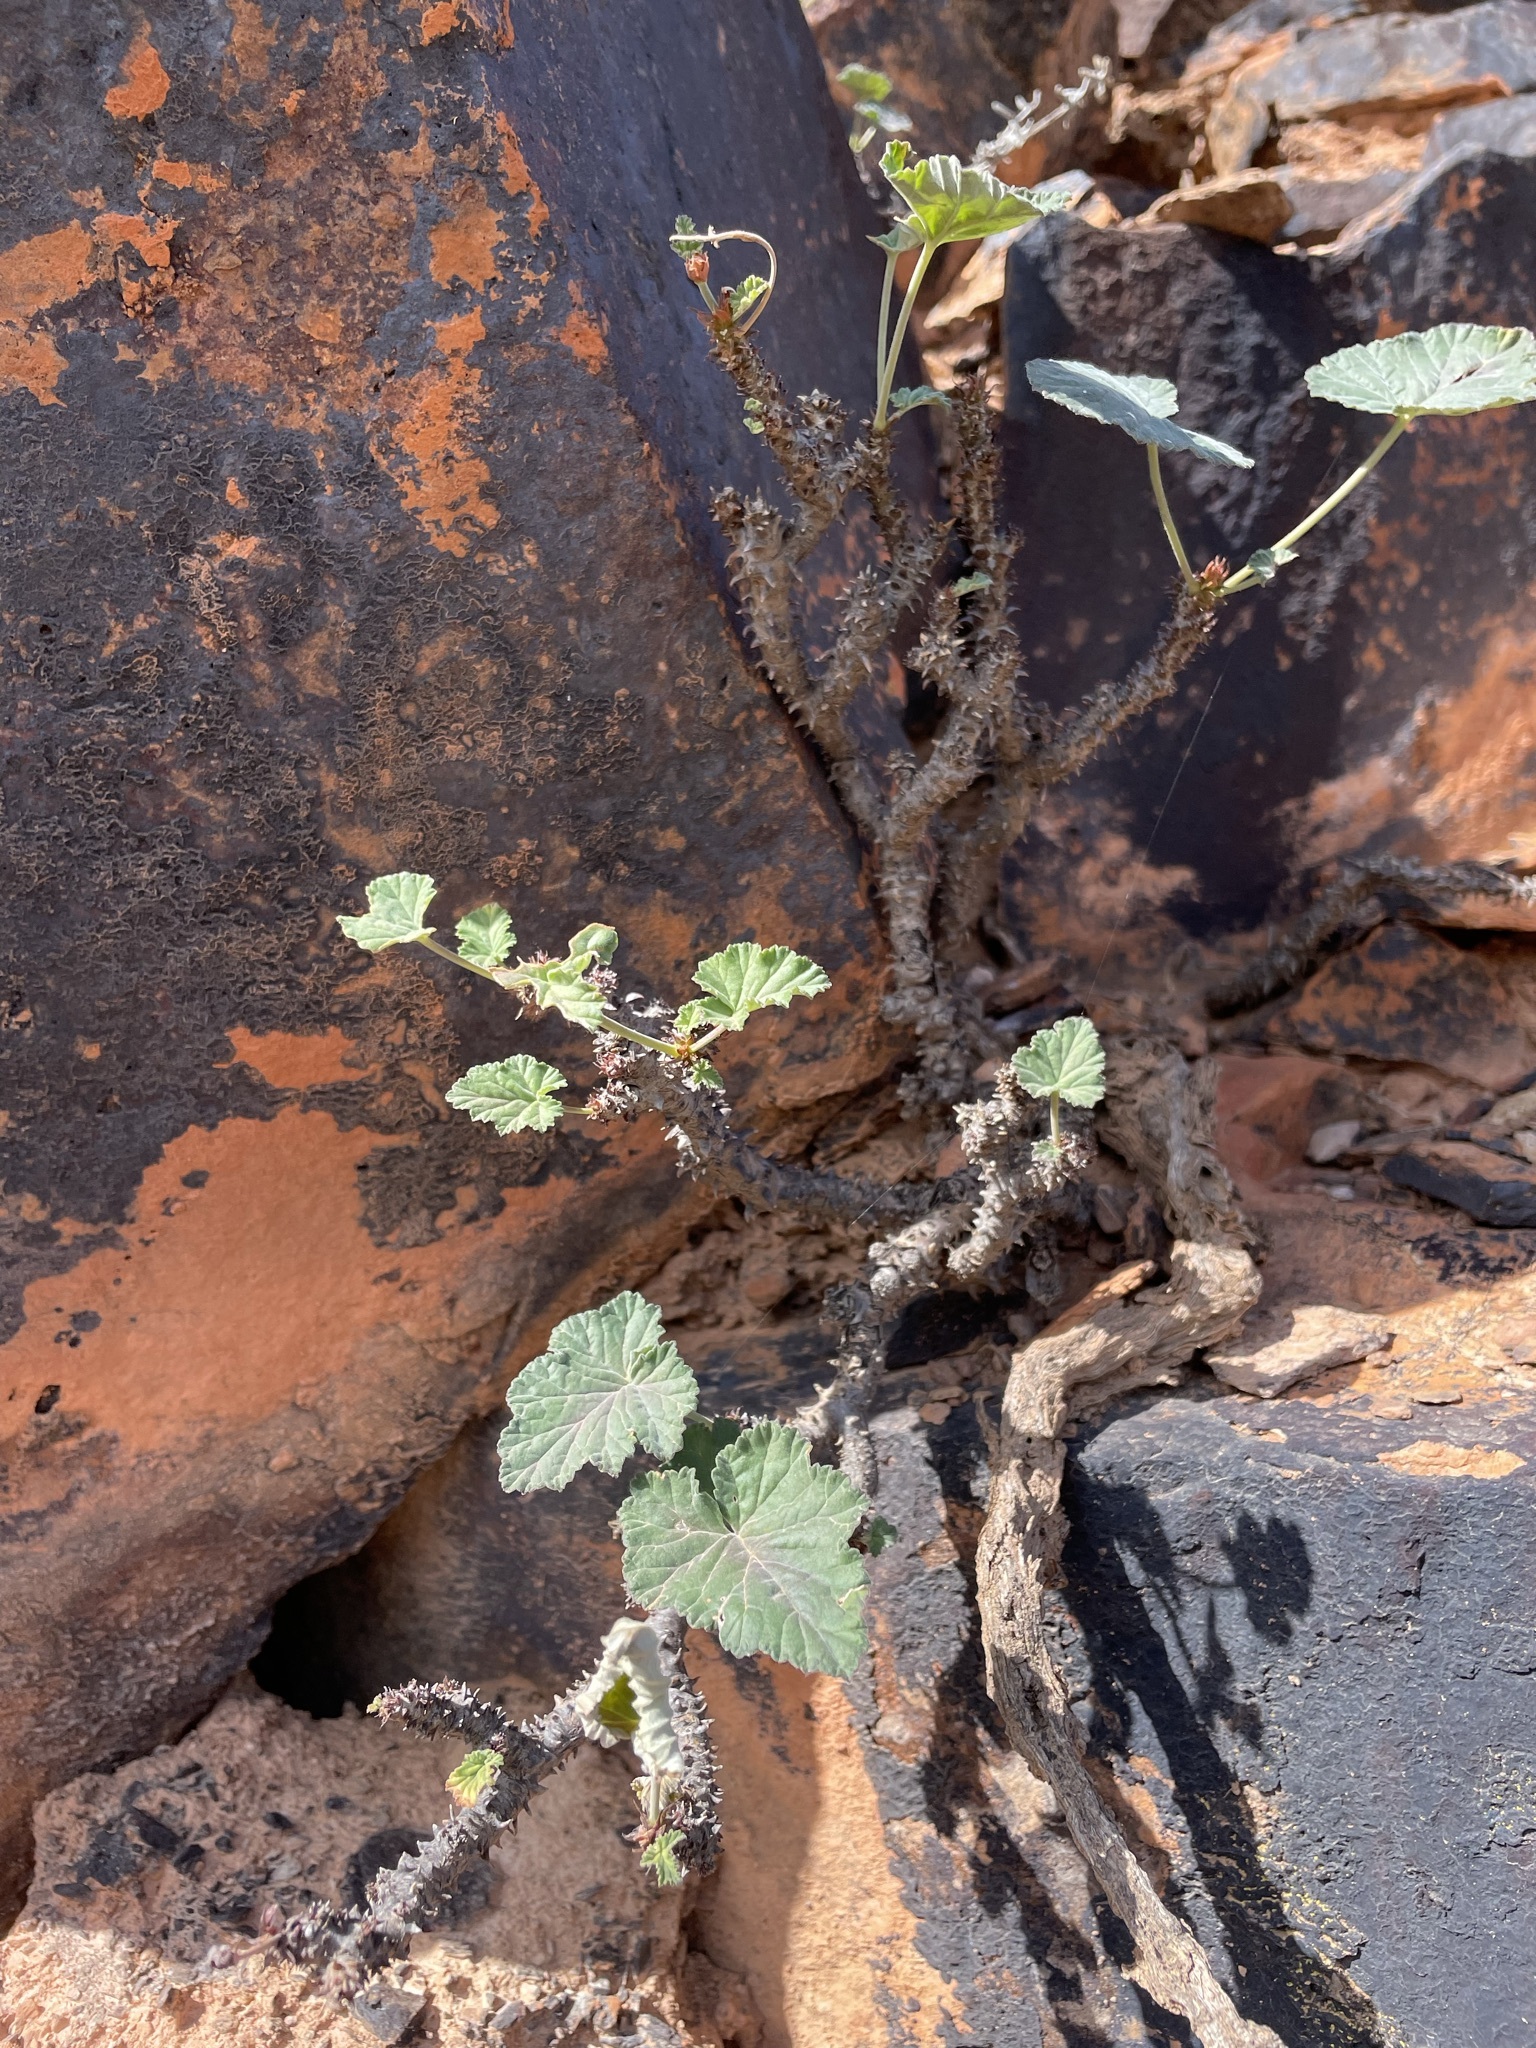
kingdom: Plantae
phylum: Tracheophyta
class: Magnoliopsida
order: Geraniales
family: Geraniaceae
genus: Pelargonium
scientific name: Pelargonium echinatum
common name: Cactus geranium
